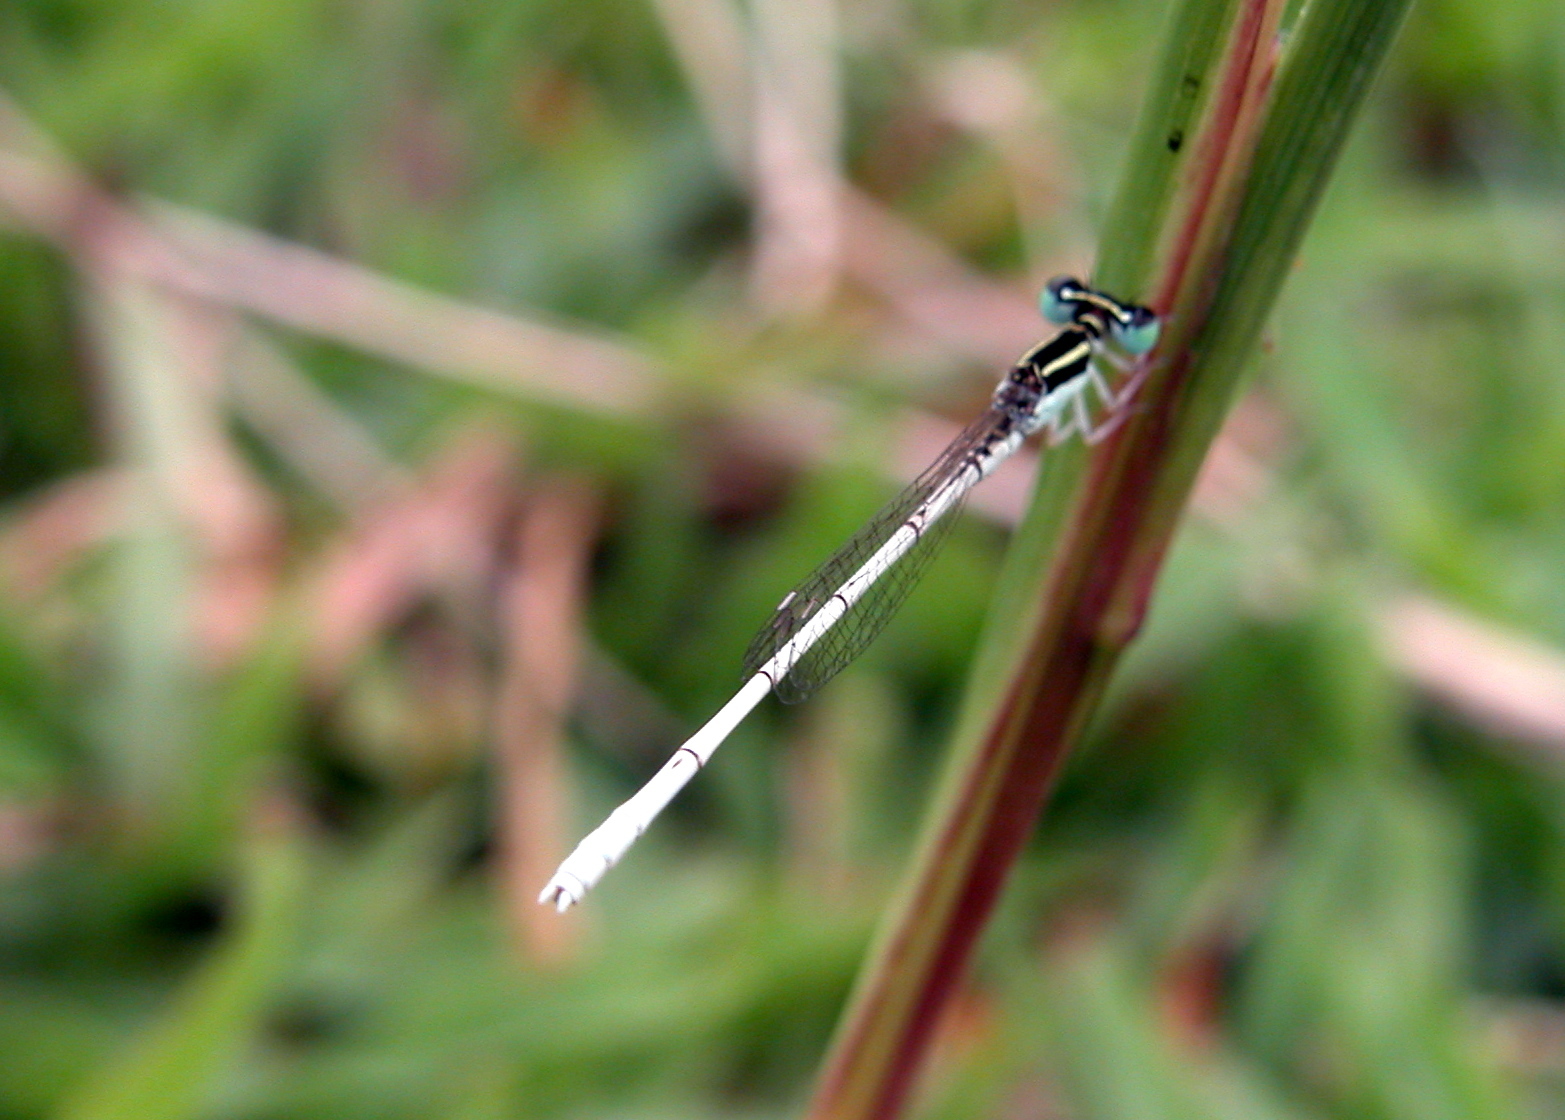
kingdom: Animalia
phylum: Arthropoda
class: Insecta
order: Odonata
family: Coenagrionidae
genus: Agriocnemis
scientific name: Agriocnemis lacteola
